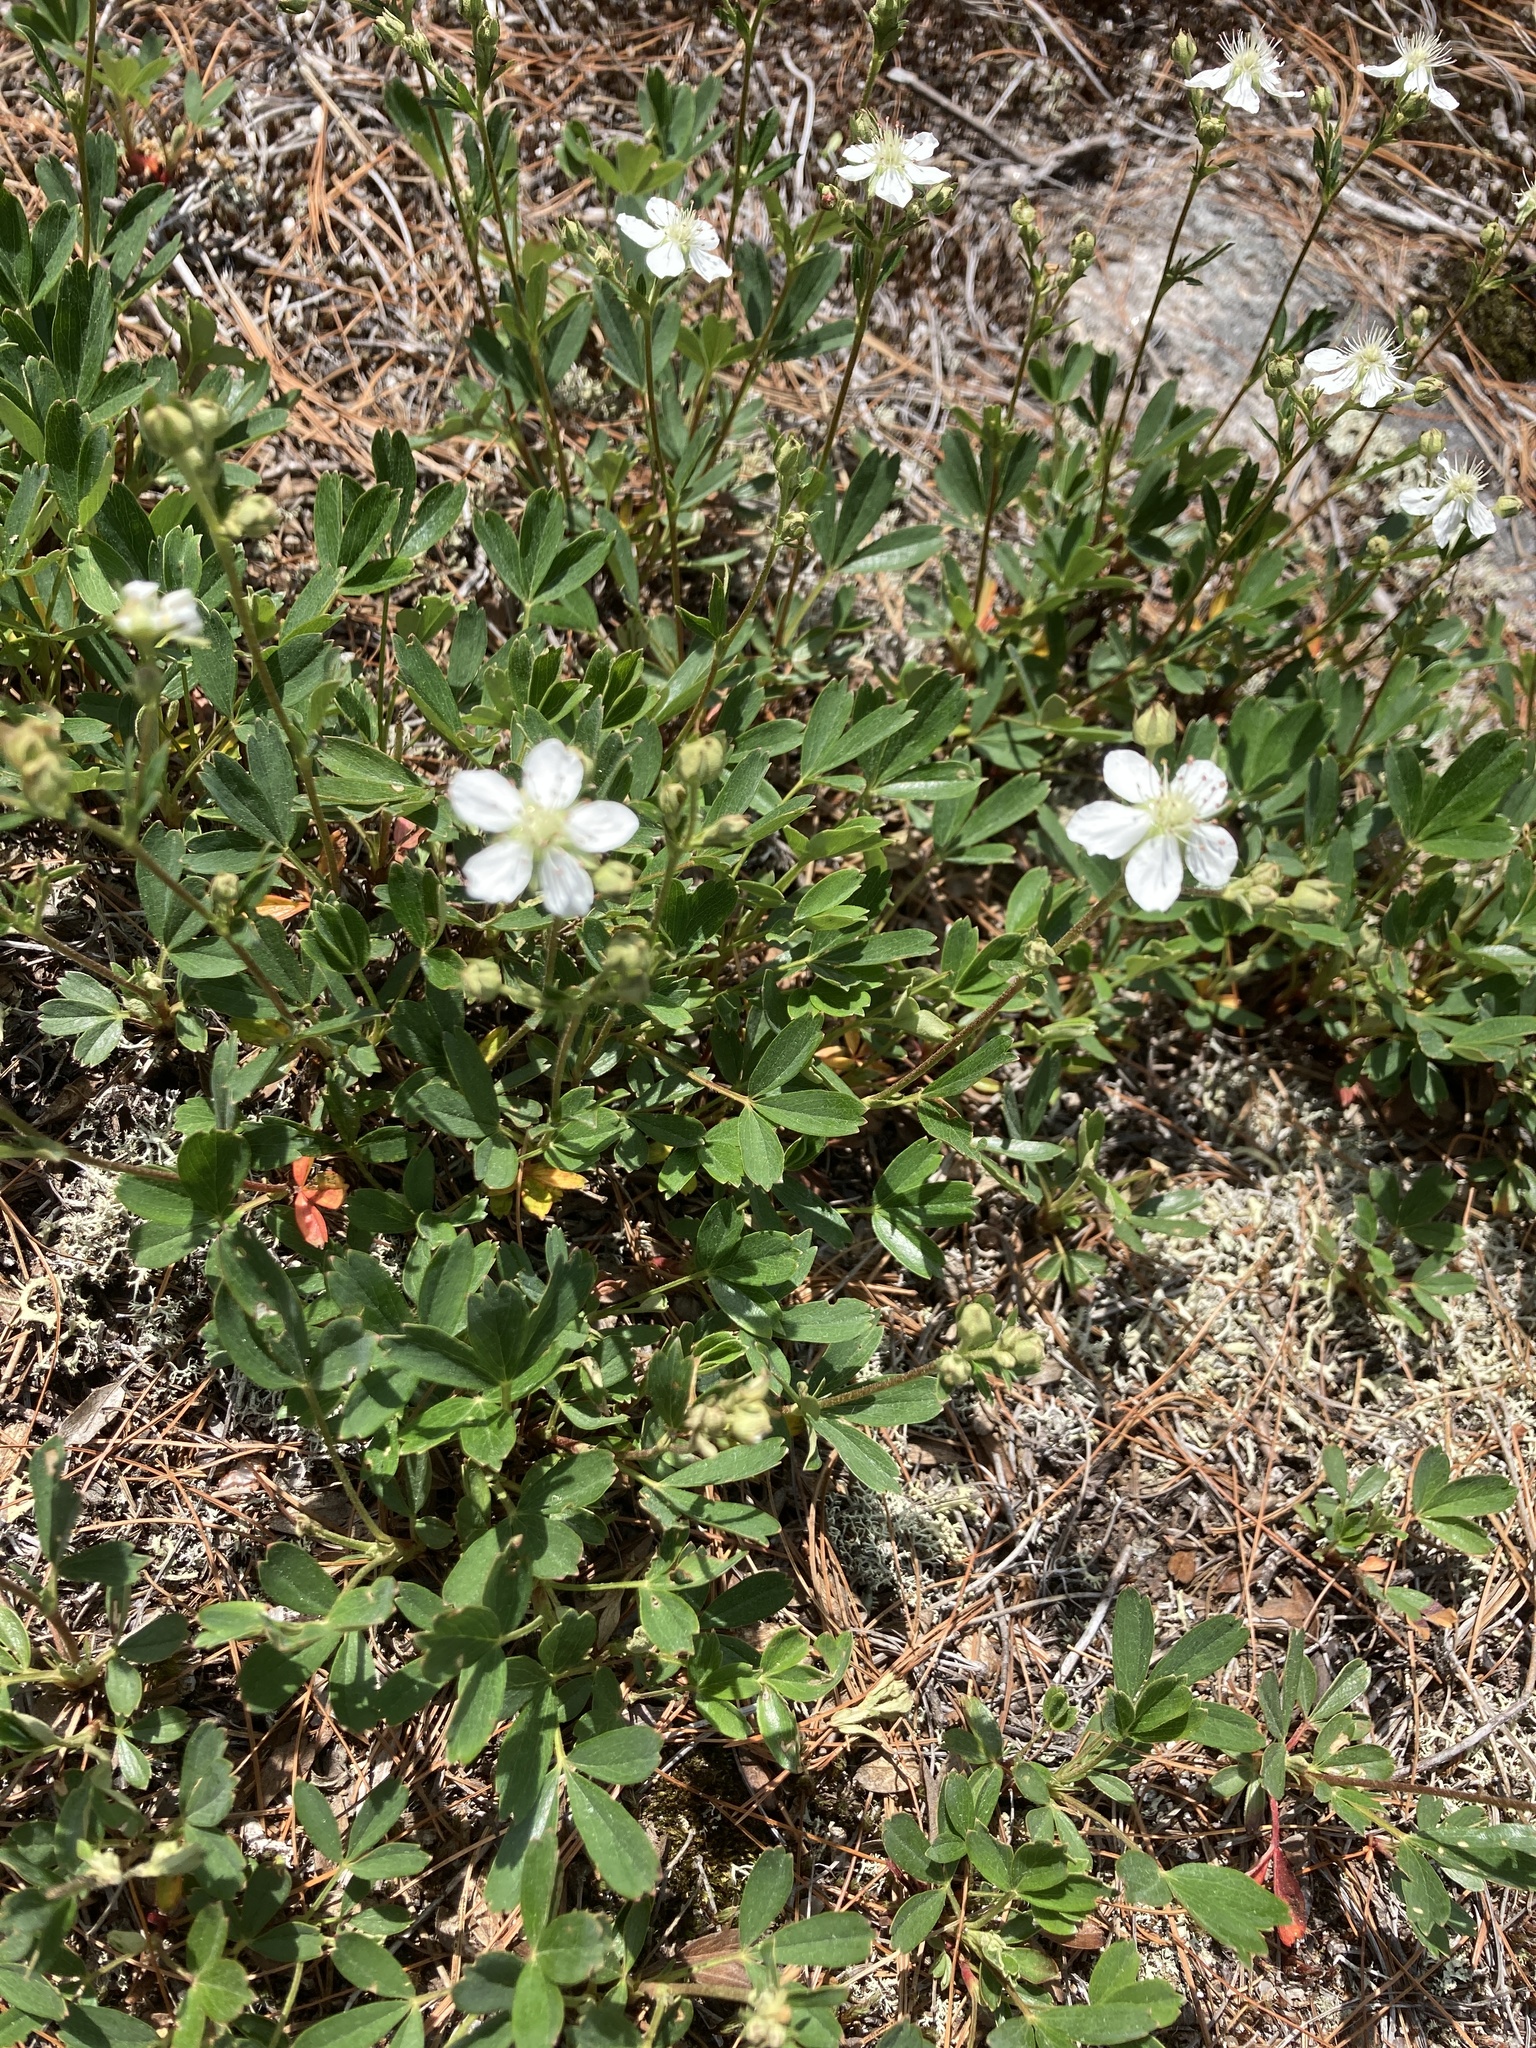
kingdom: Plantae
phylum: Tracheophyta
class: Magnoliopsida
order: Rosales
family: Rosaceae
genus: Sibbaldia
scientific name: Sibbaldia tridentata
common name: Three-toothed cinquefoil
